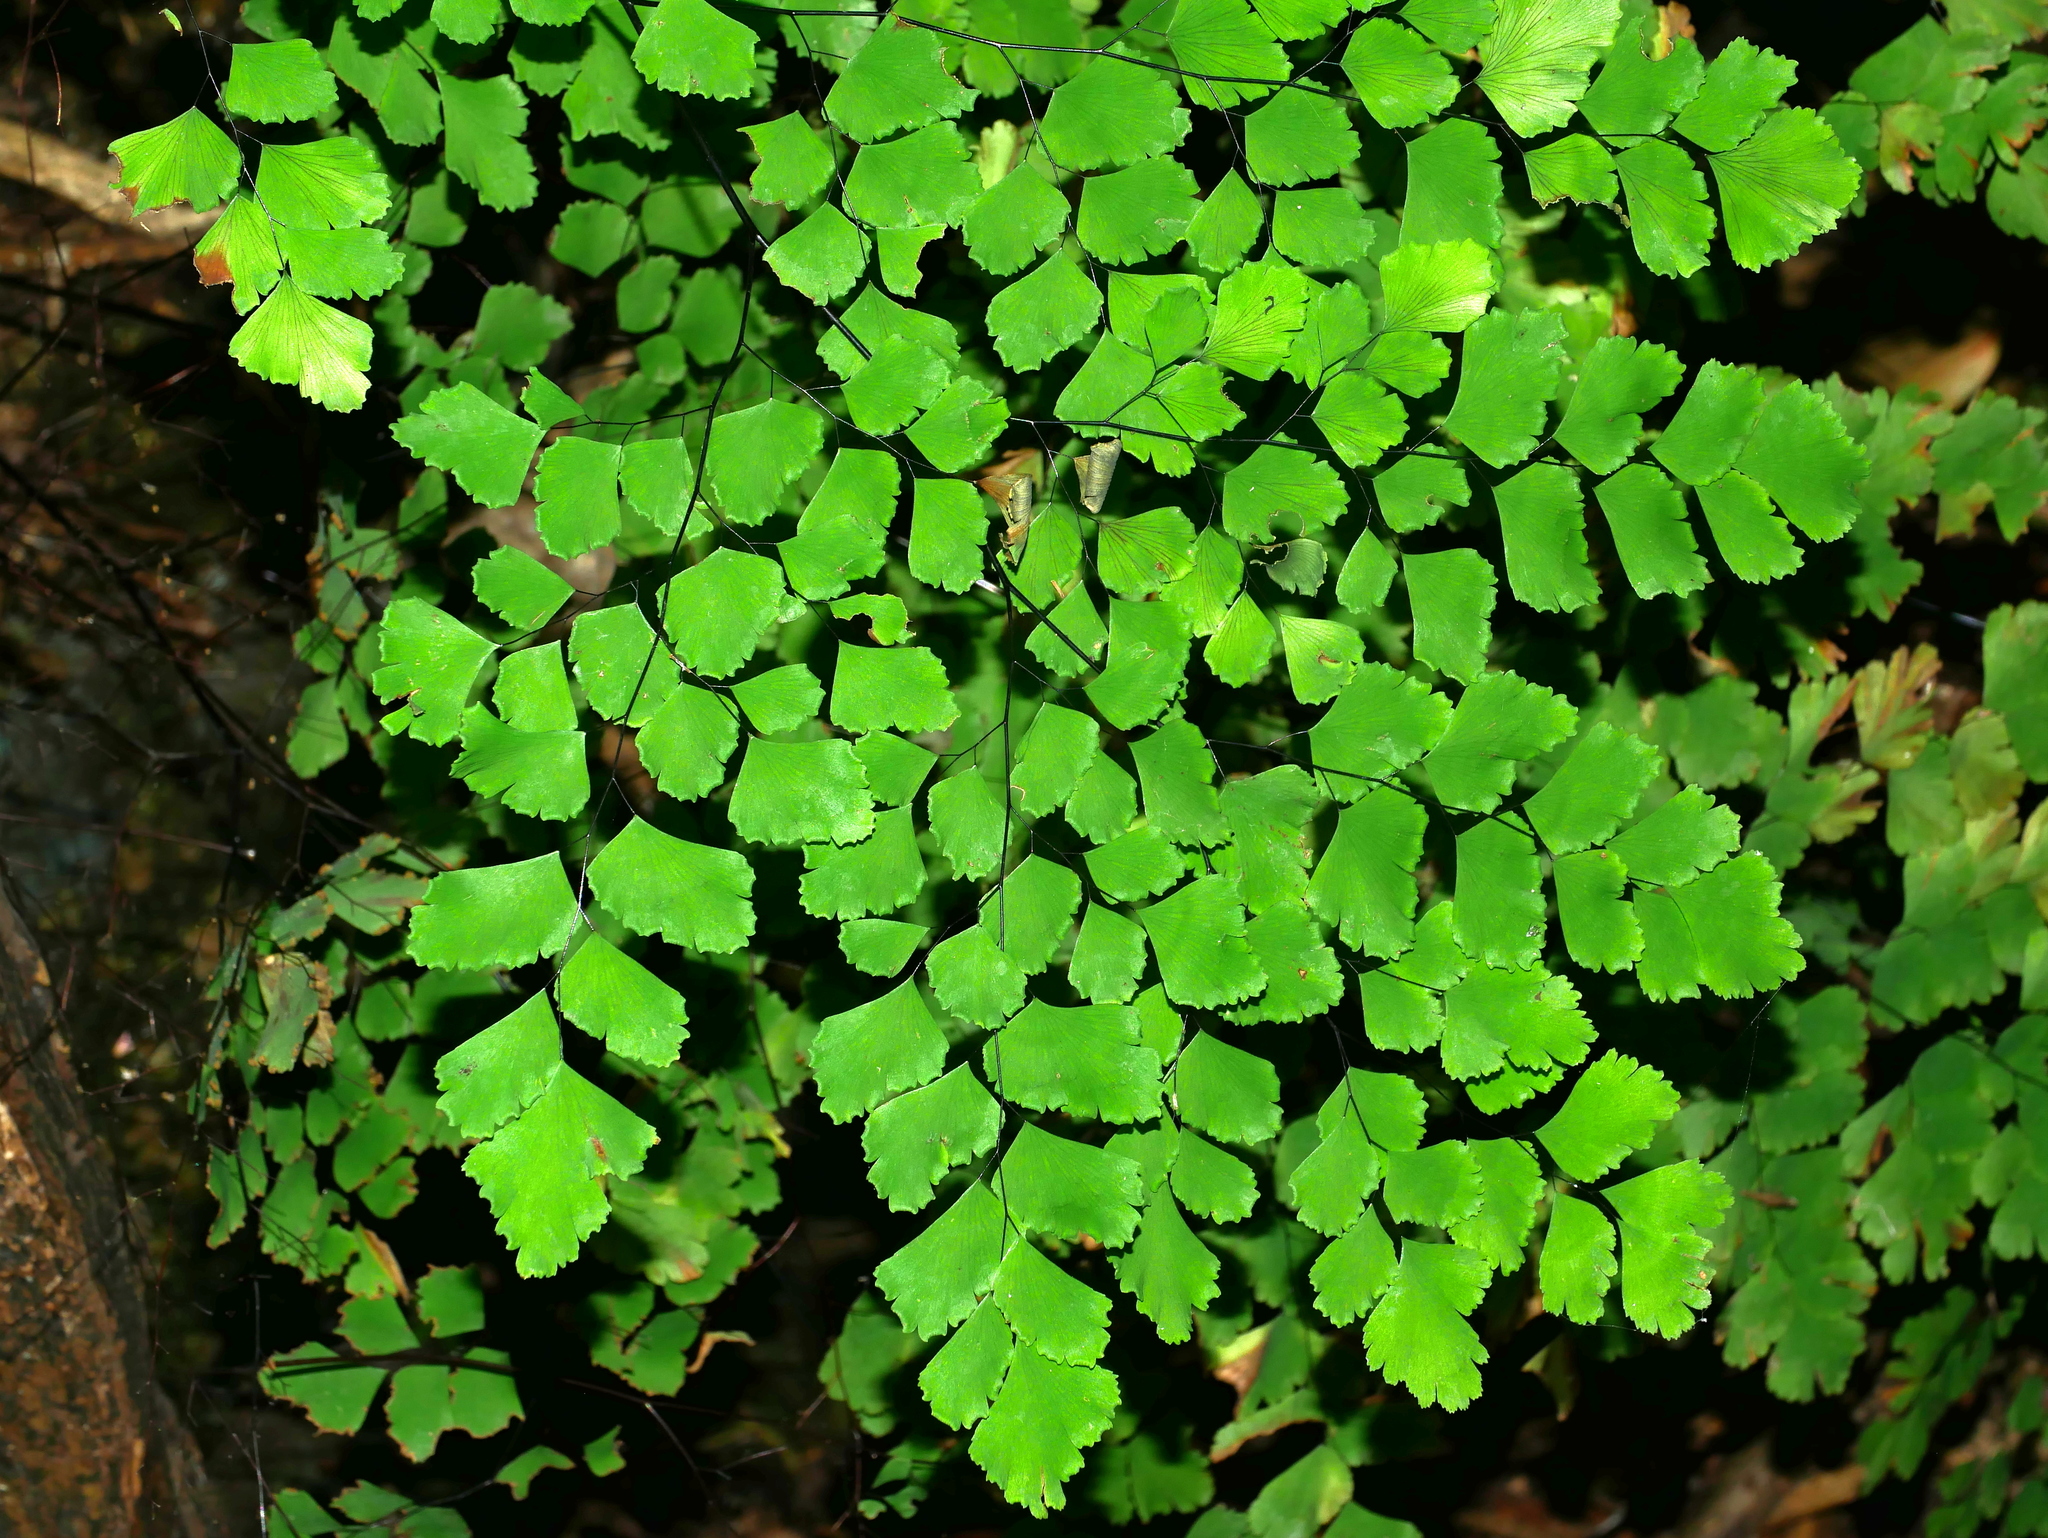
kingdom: Plantae
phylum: Tracheophyta
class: Polypodiopsida
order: Polypodiales
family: Pteridaceae
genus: Adiantum
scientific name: Adiantum capillus-veneris
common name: Maidenhair fern
